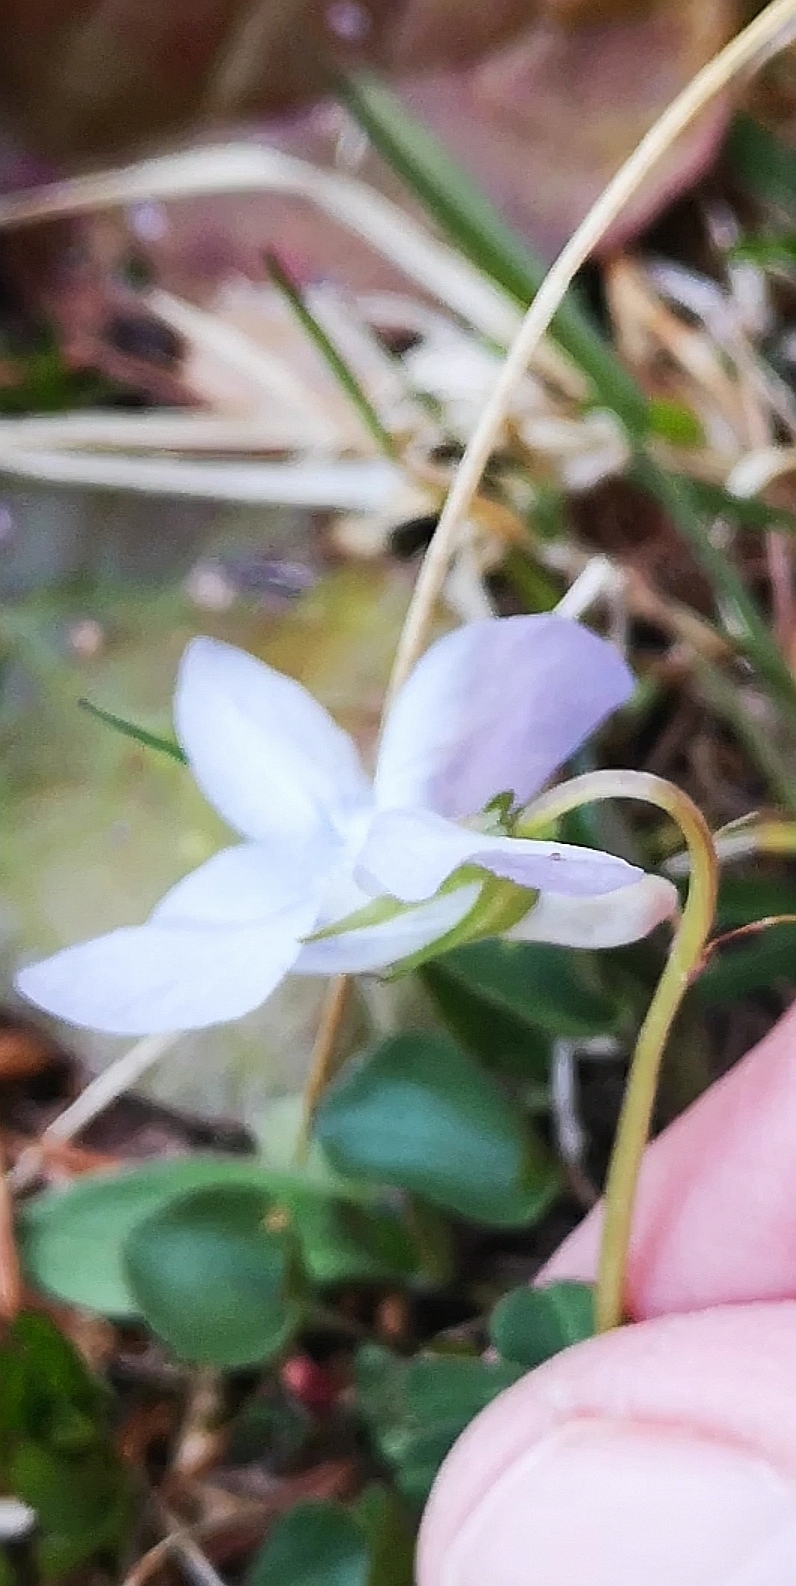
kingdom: Plantae
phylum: Tracheophyta
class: Magnoliopsida
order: Malpighiales
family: Violaceae
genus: Viola
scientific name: Viola riviniana
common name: Common dog-violet
